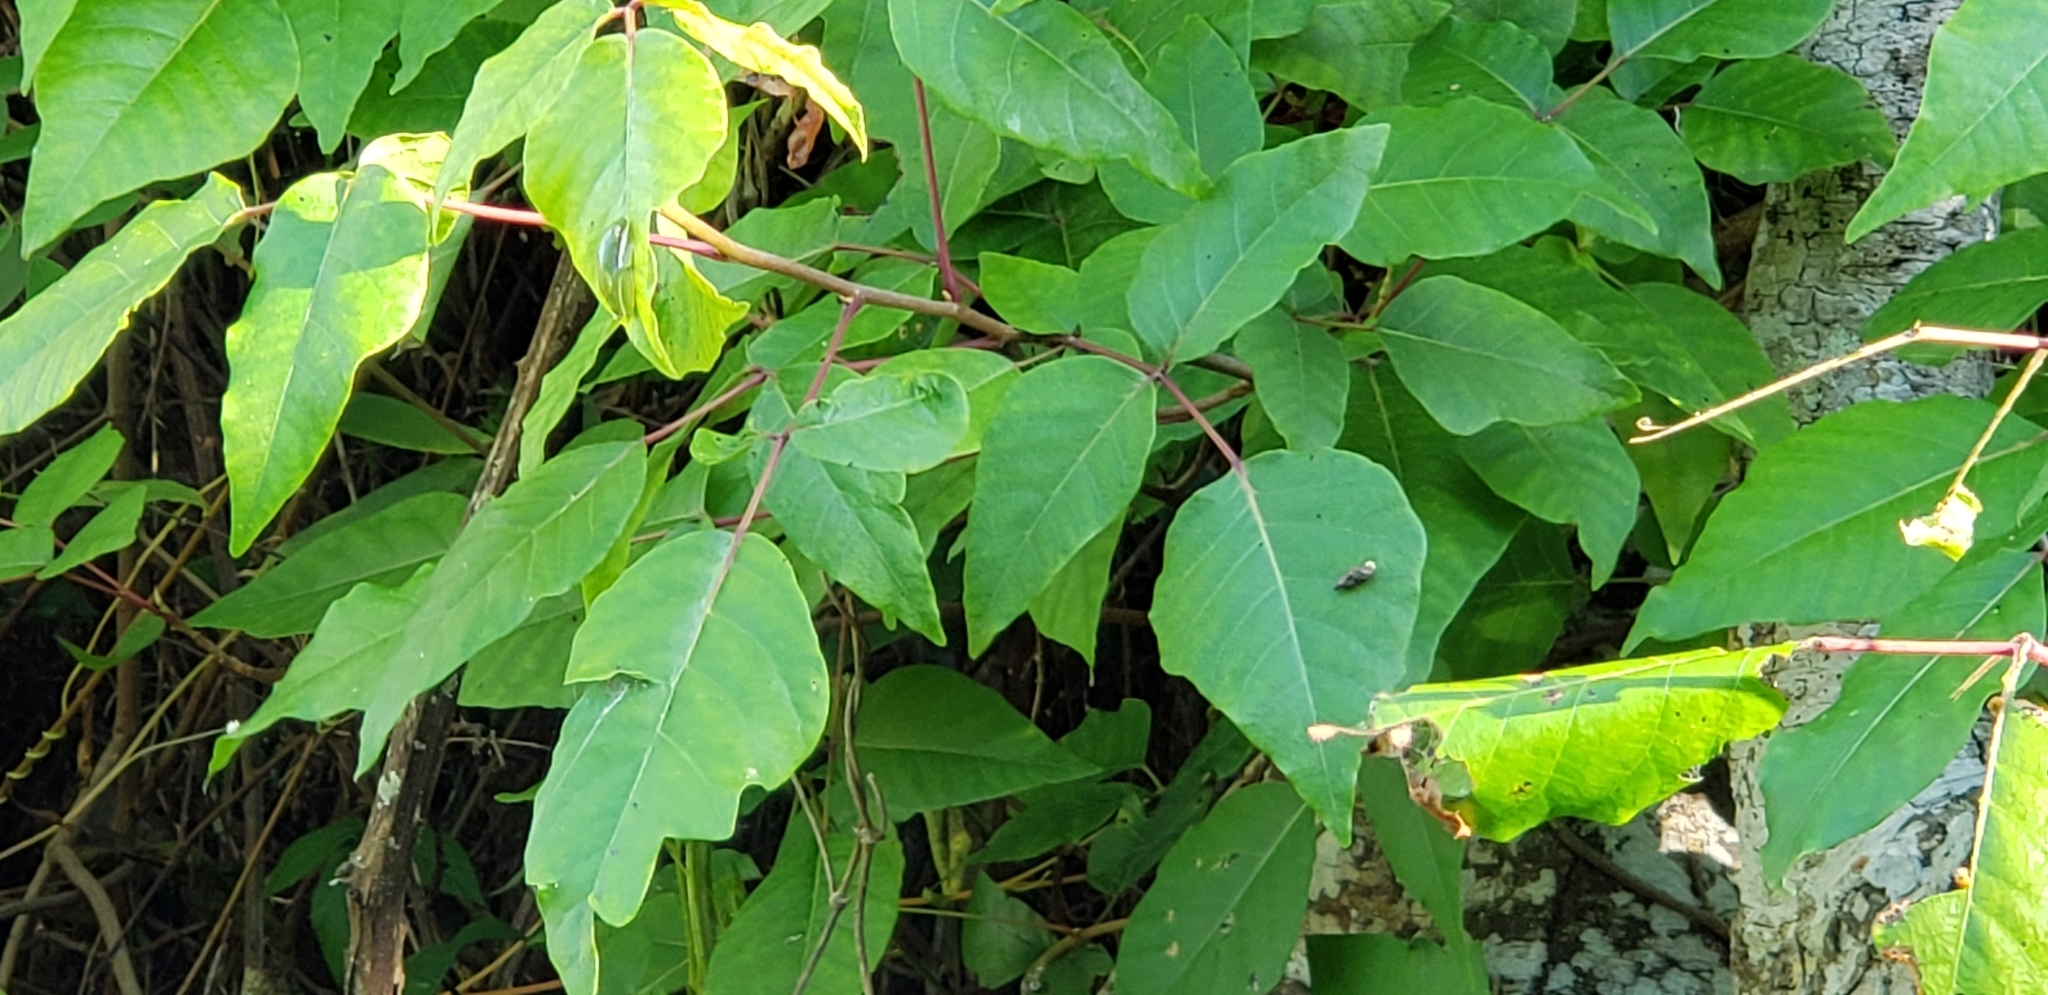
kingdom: Plantae
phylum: Tracheophyta
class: Magnoliopsida
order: Sapindales
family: Anacardiaceae
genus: Toxicodendron
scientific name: Toxicodendron radicans
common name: Poison ivy
